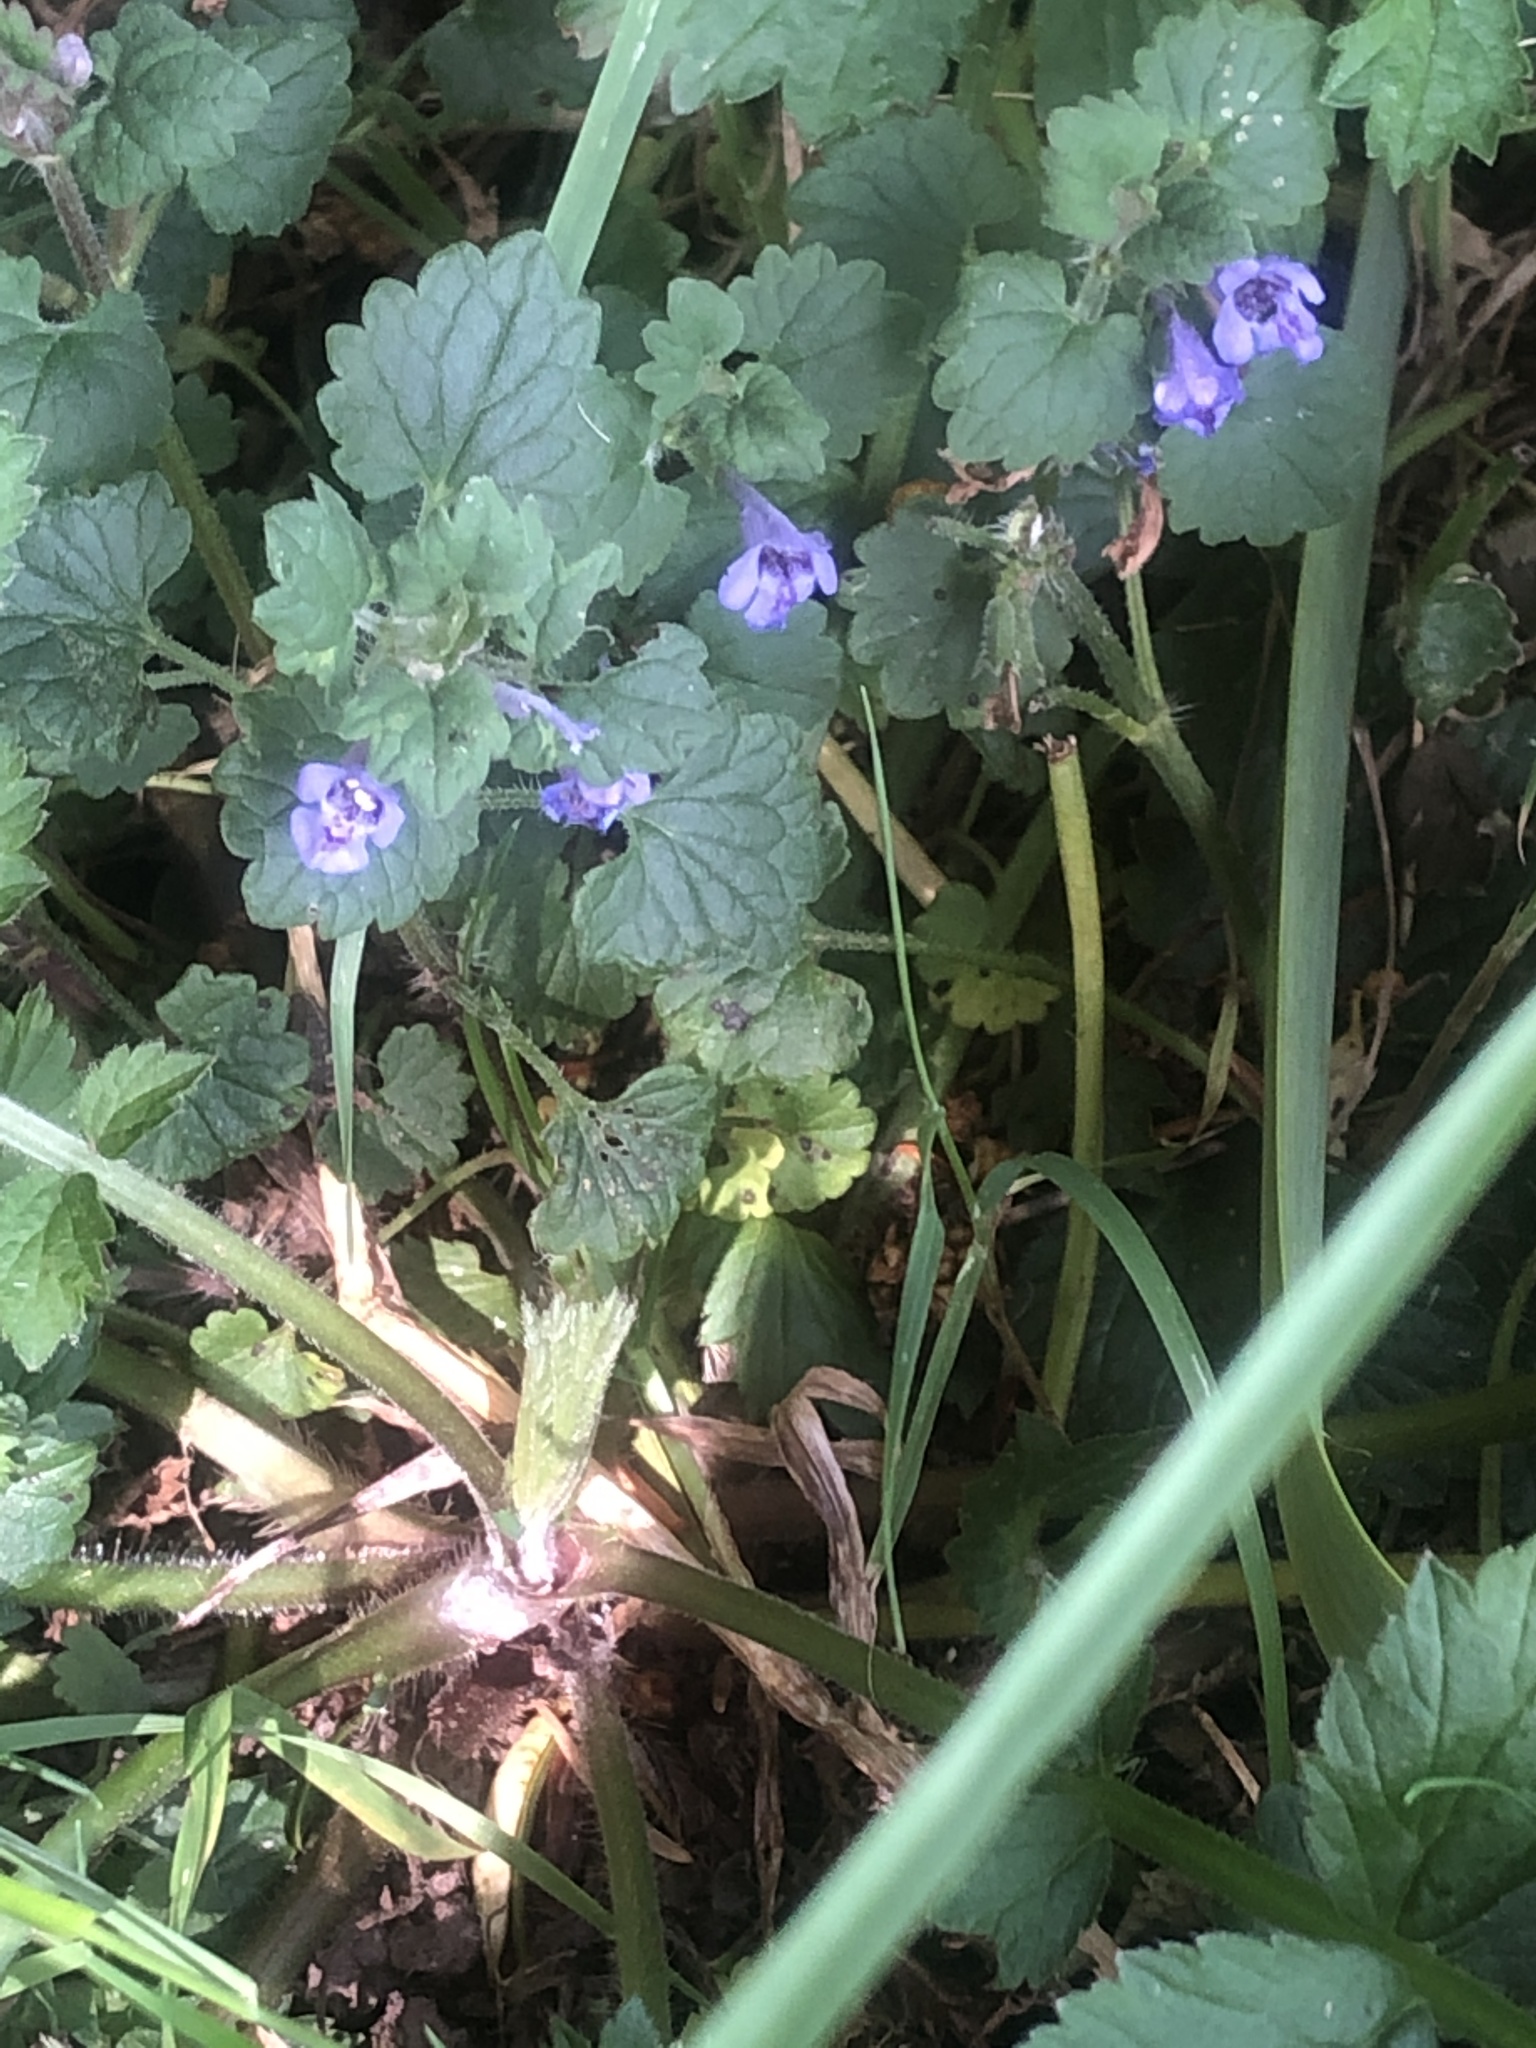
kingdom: Plantae
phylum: Tracheophyta
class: Magnoliopsida
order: Lamiales
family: Lamiaceae
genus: Glechoma
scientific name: Glechoma hederacea
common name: Ground ivy
